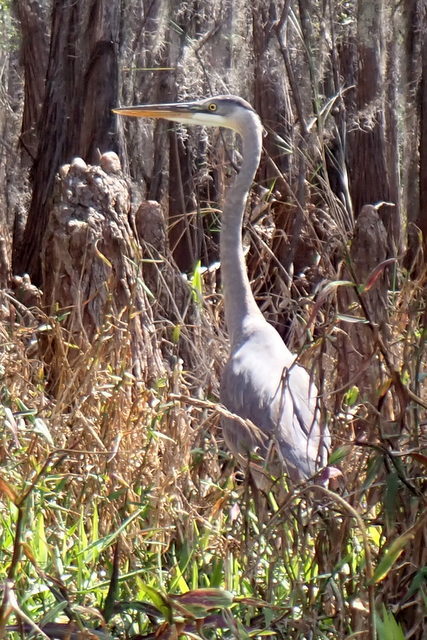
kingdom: Animalia
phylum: Chordata
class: Aves
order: Pelecaniformes
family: Ardeidae
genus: Ardea
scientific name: Ardea herodias
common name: Great blue heron
